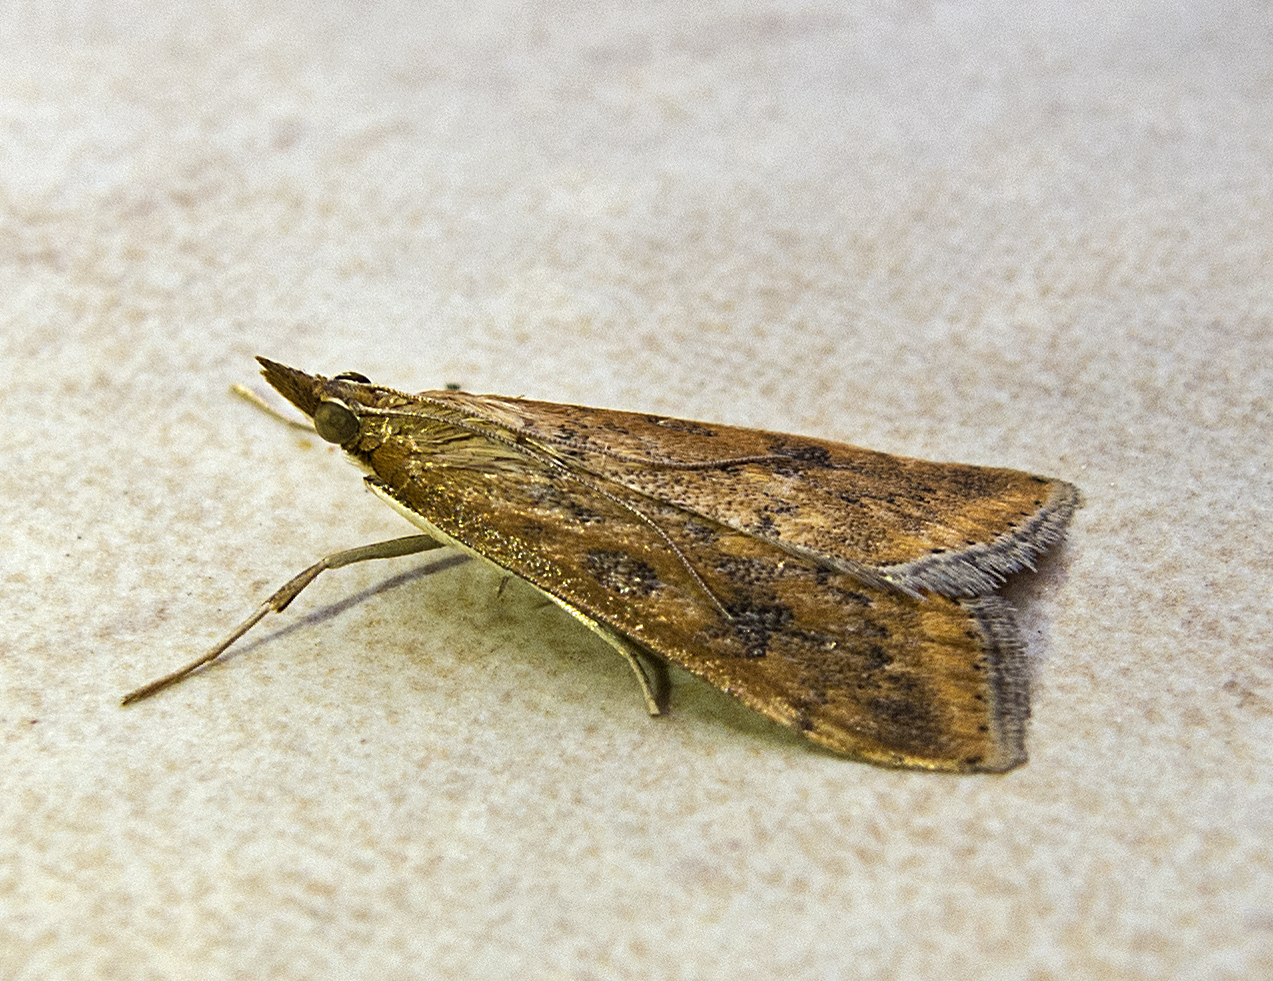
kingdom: Animalia
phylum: Arthropoda
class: Insecta
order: Lepidoptera
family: Crambidae
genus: Udea
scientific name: Udea ferrugalis
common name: Rusty dot
